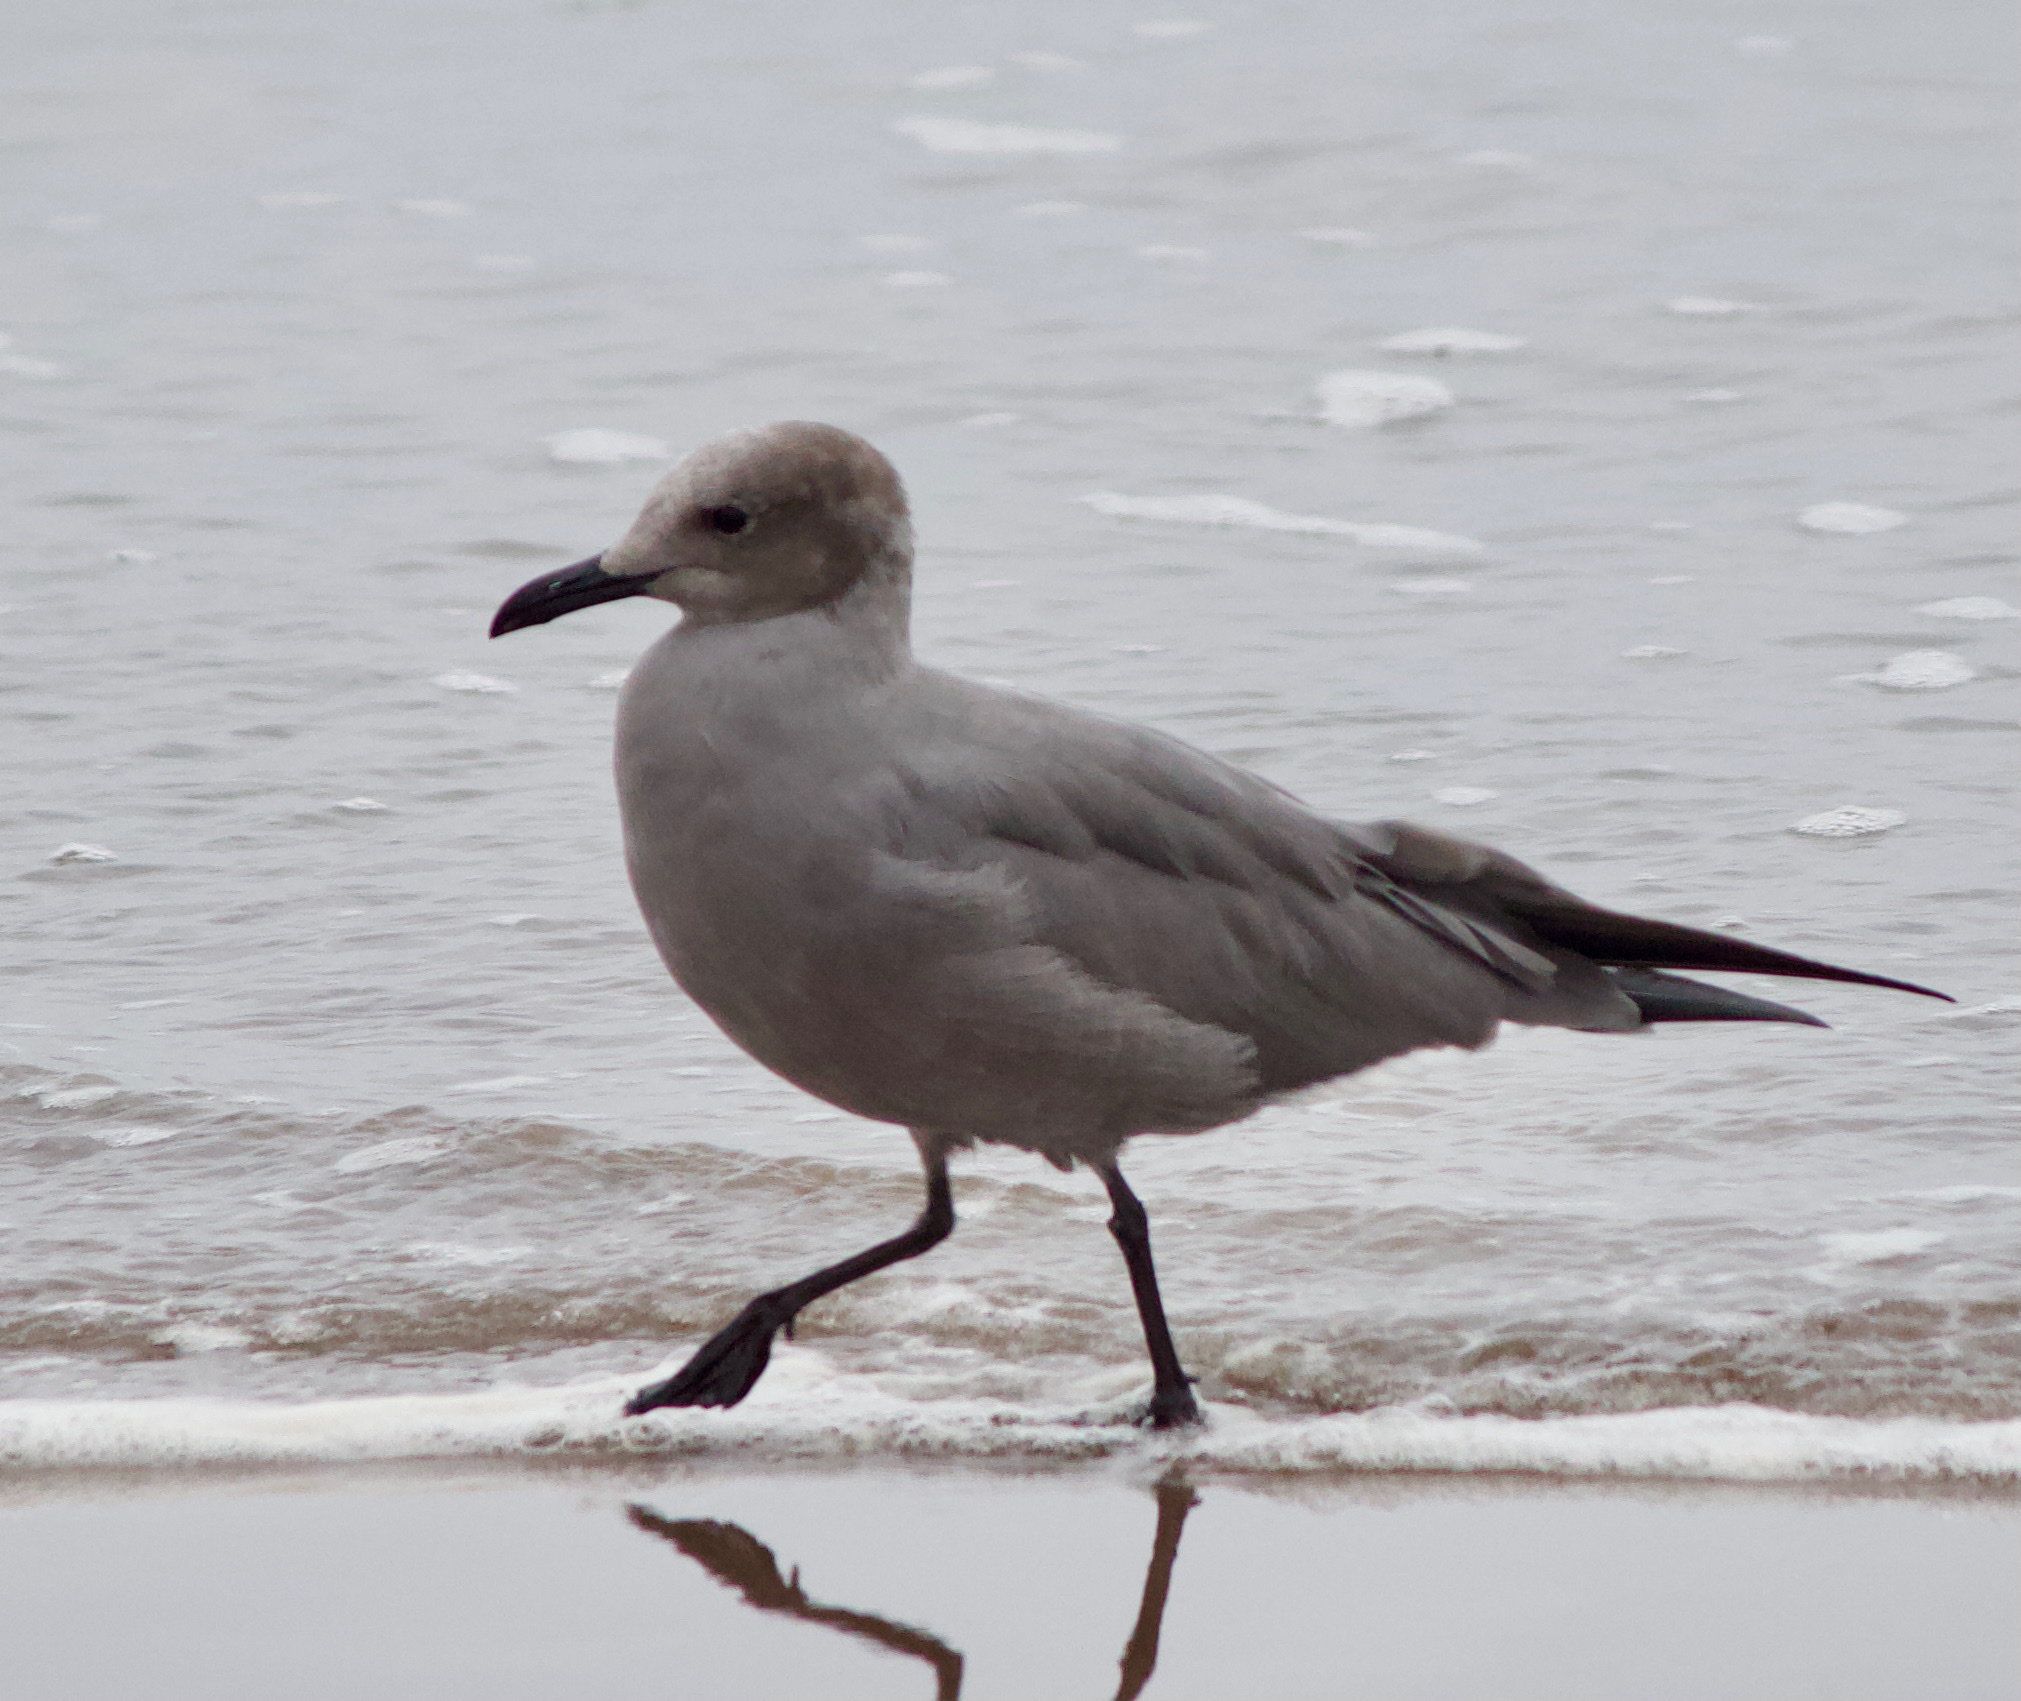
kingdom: Animalia
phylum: Chordata
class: Aves
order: Charadriiformes
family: Laridae
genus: Leucophaeus
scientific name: Leucophaeus modestus
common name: Gray gull
